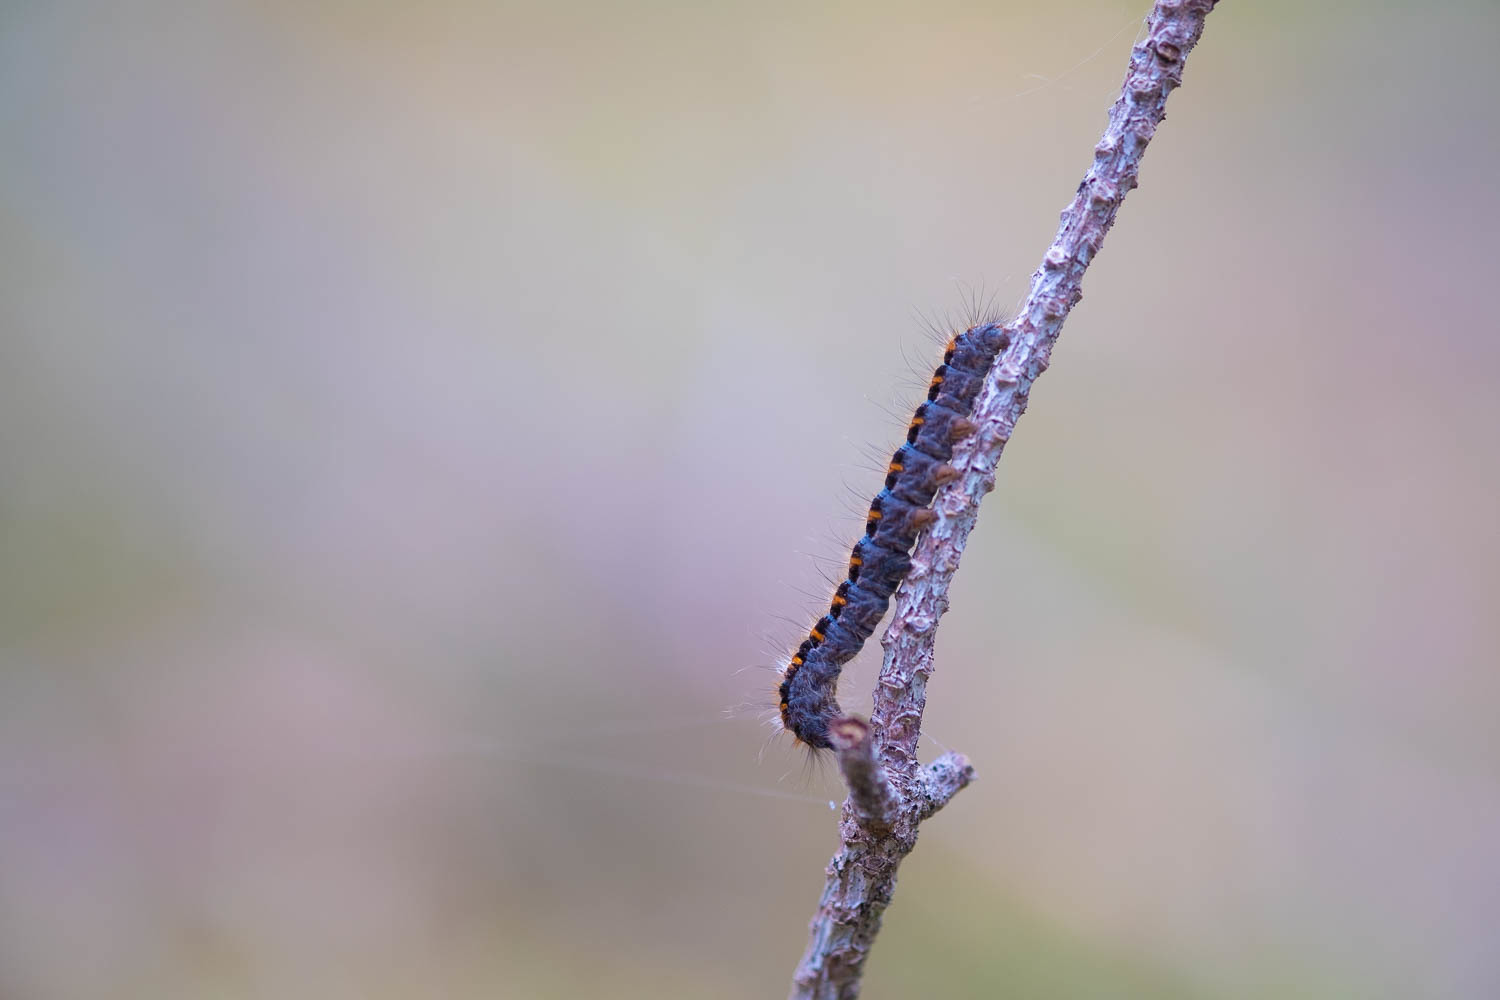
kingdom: Animalia
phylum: Arthropoda
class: Insecta
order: Lepidoptera
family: Lasiocampidae
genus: Lasiocampa
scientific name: Lasiocampa quercus
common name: Oak eggar
